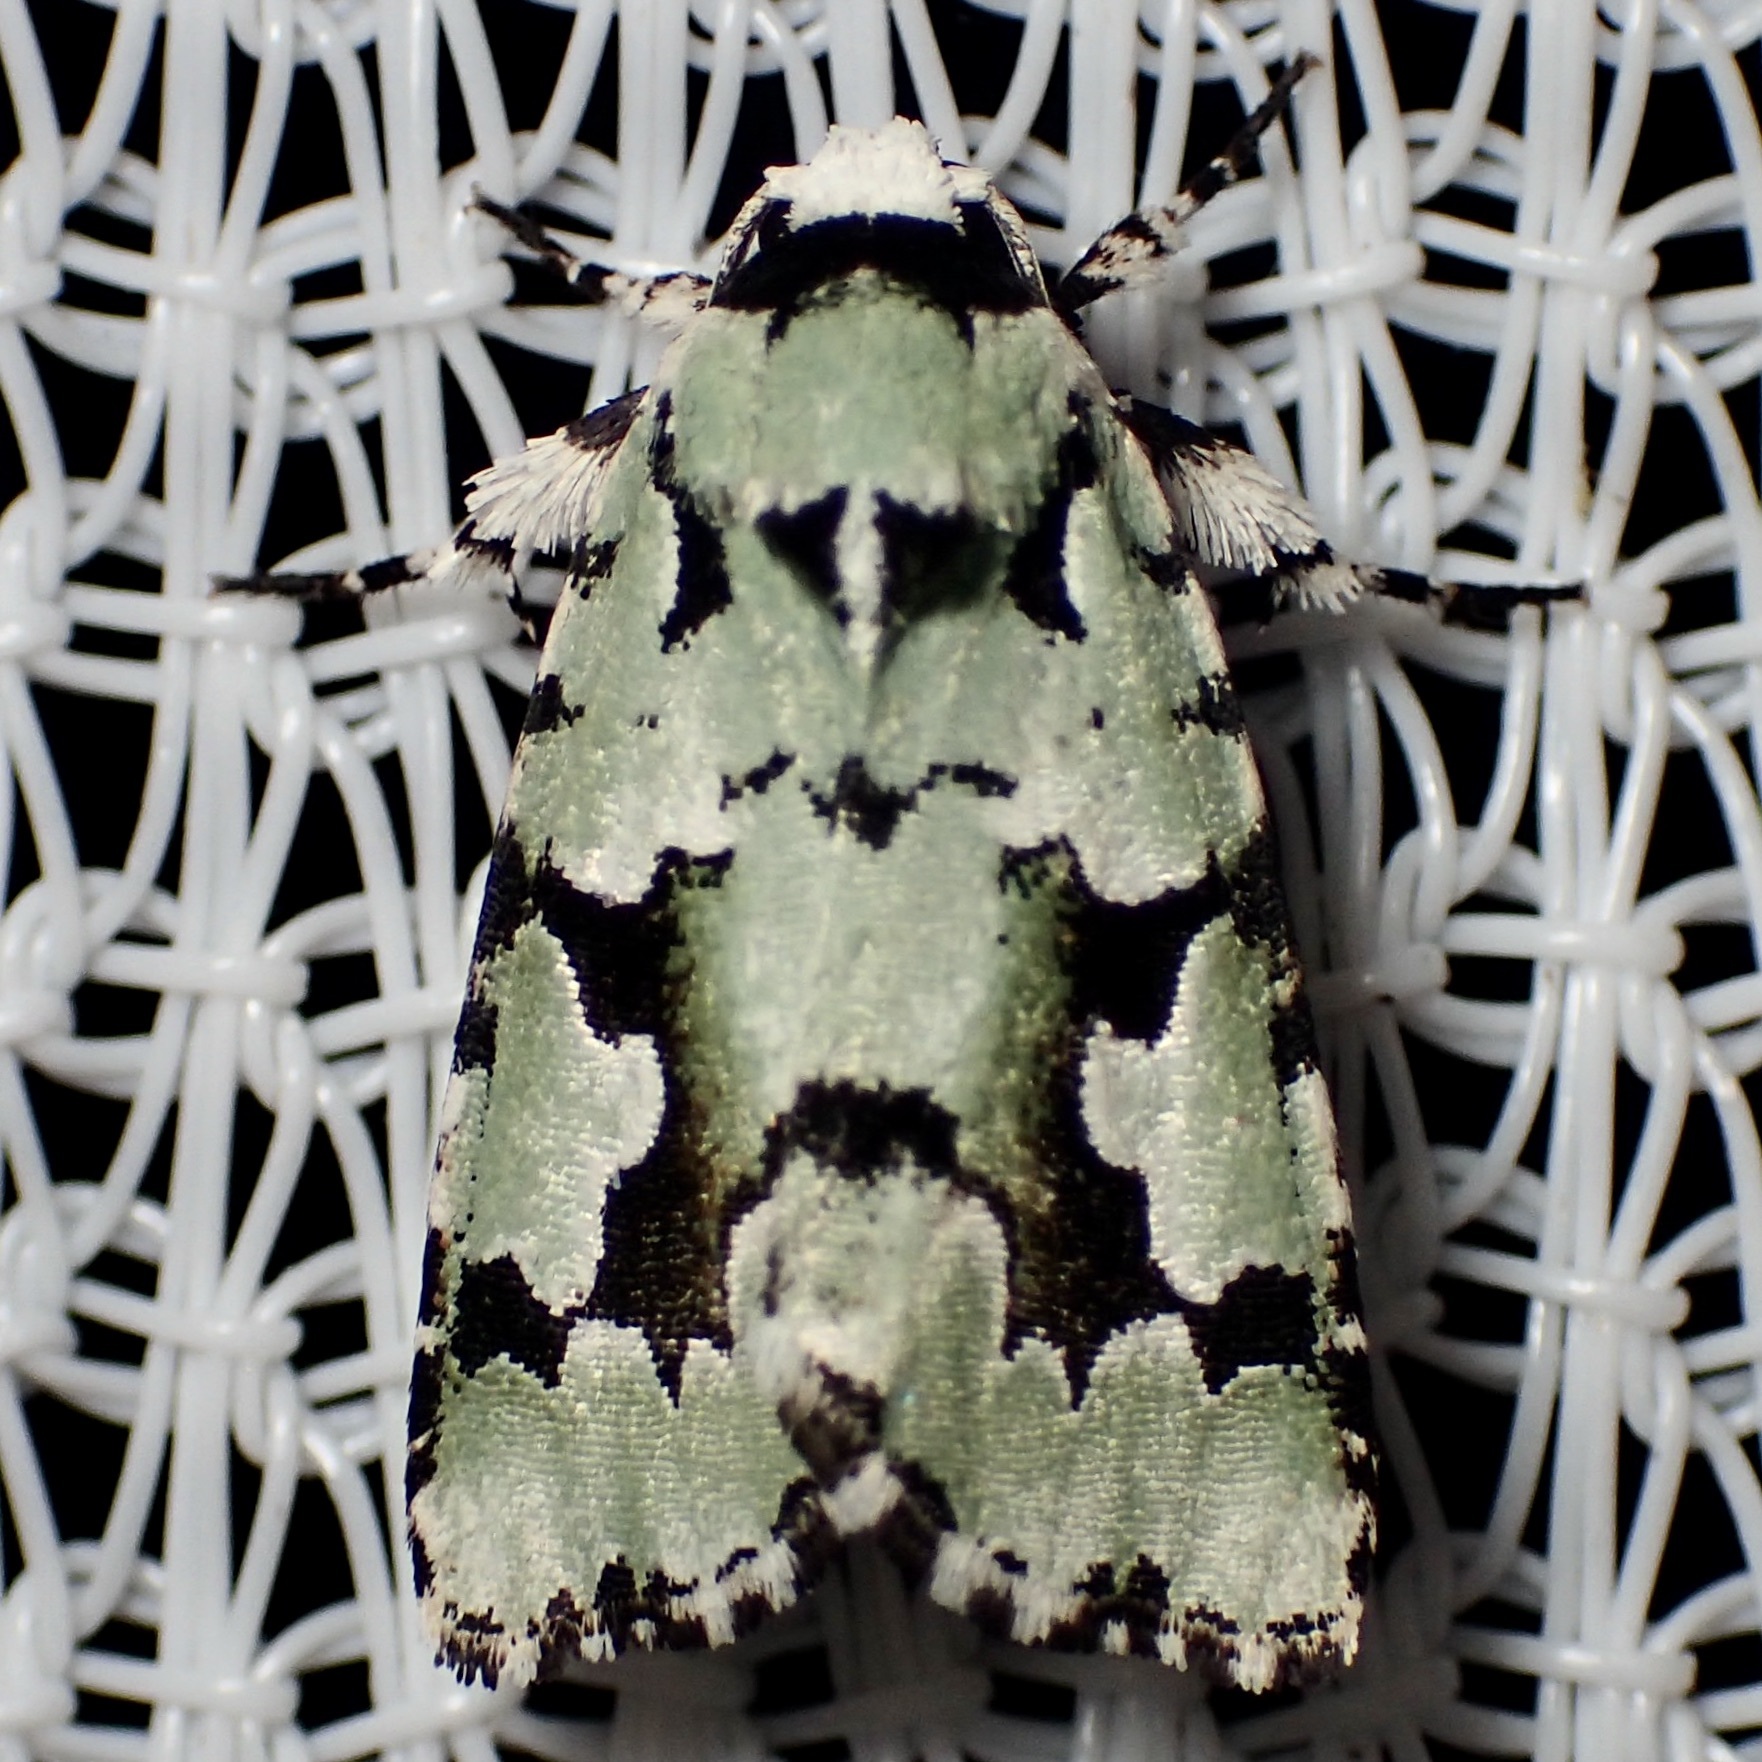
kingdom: Animalia
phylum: Arthropoda
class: Insecta
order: Lepidoptera
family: Noctuidae
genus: Emarginea
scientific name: Emarginea dulcinea
